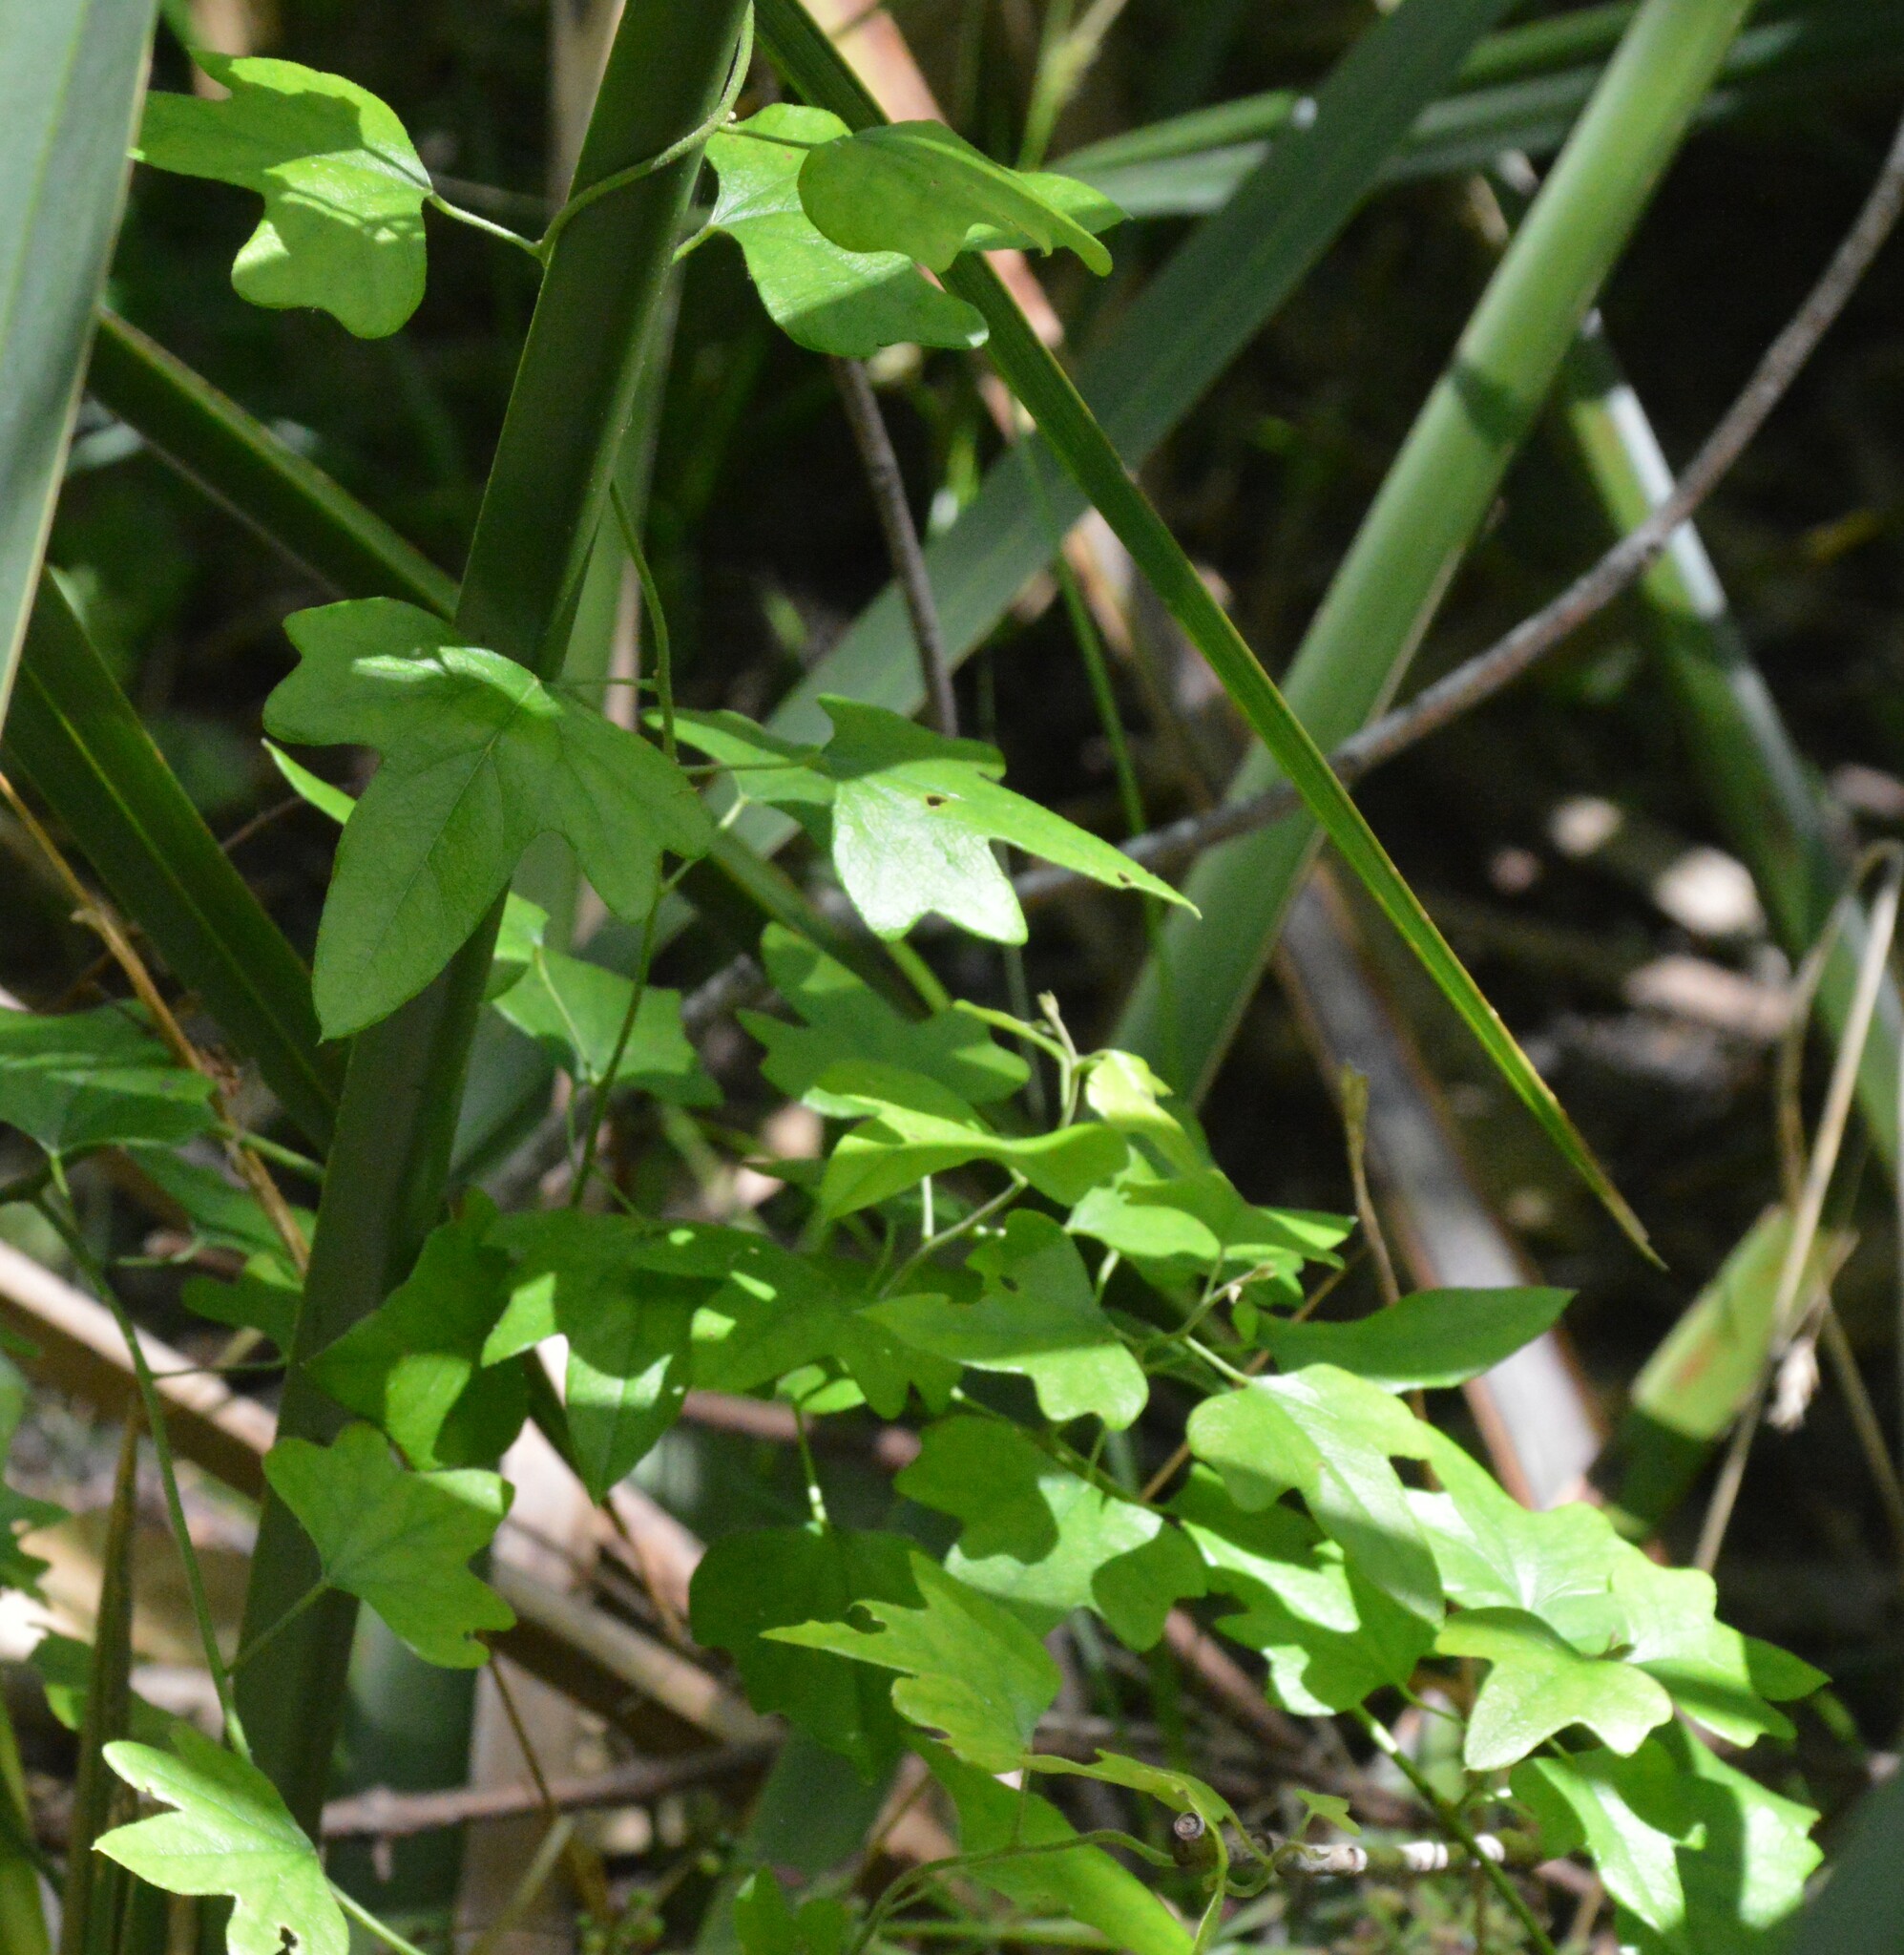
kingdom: Plantae
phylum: Tracheophyta
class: Magnoliopsida
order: Ranunculales
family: Menispermaceae
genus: Cocculus
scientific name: Cocculus carolinus
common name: Carolina moonseed
